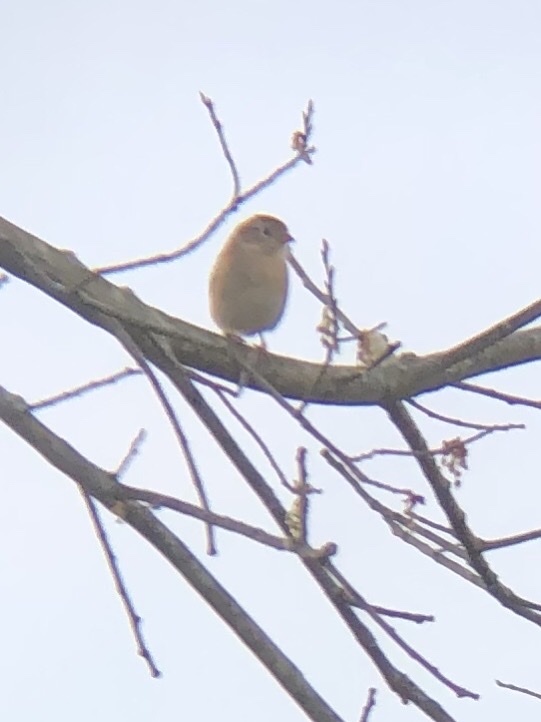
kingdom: Animalia
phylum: Chordata
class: Aves
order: Passeriformes
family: Passerellidae
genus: Spizella
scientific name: Spizella pusilla
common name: Field sparrow
